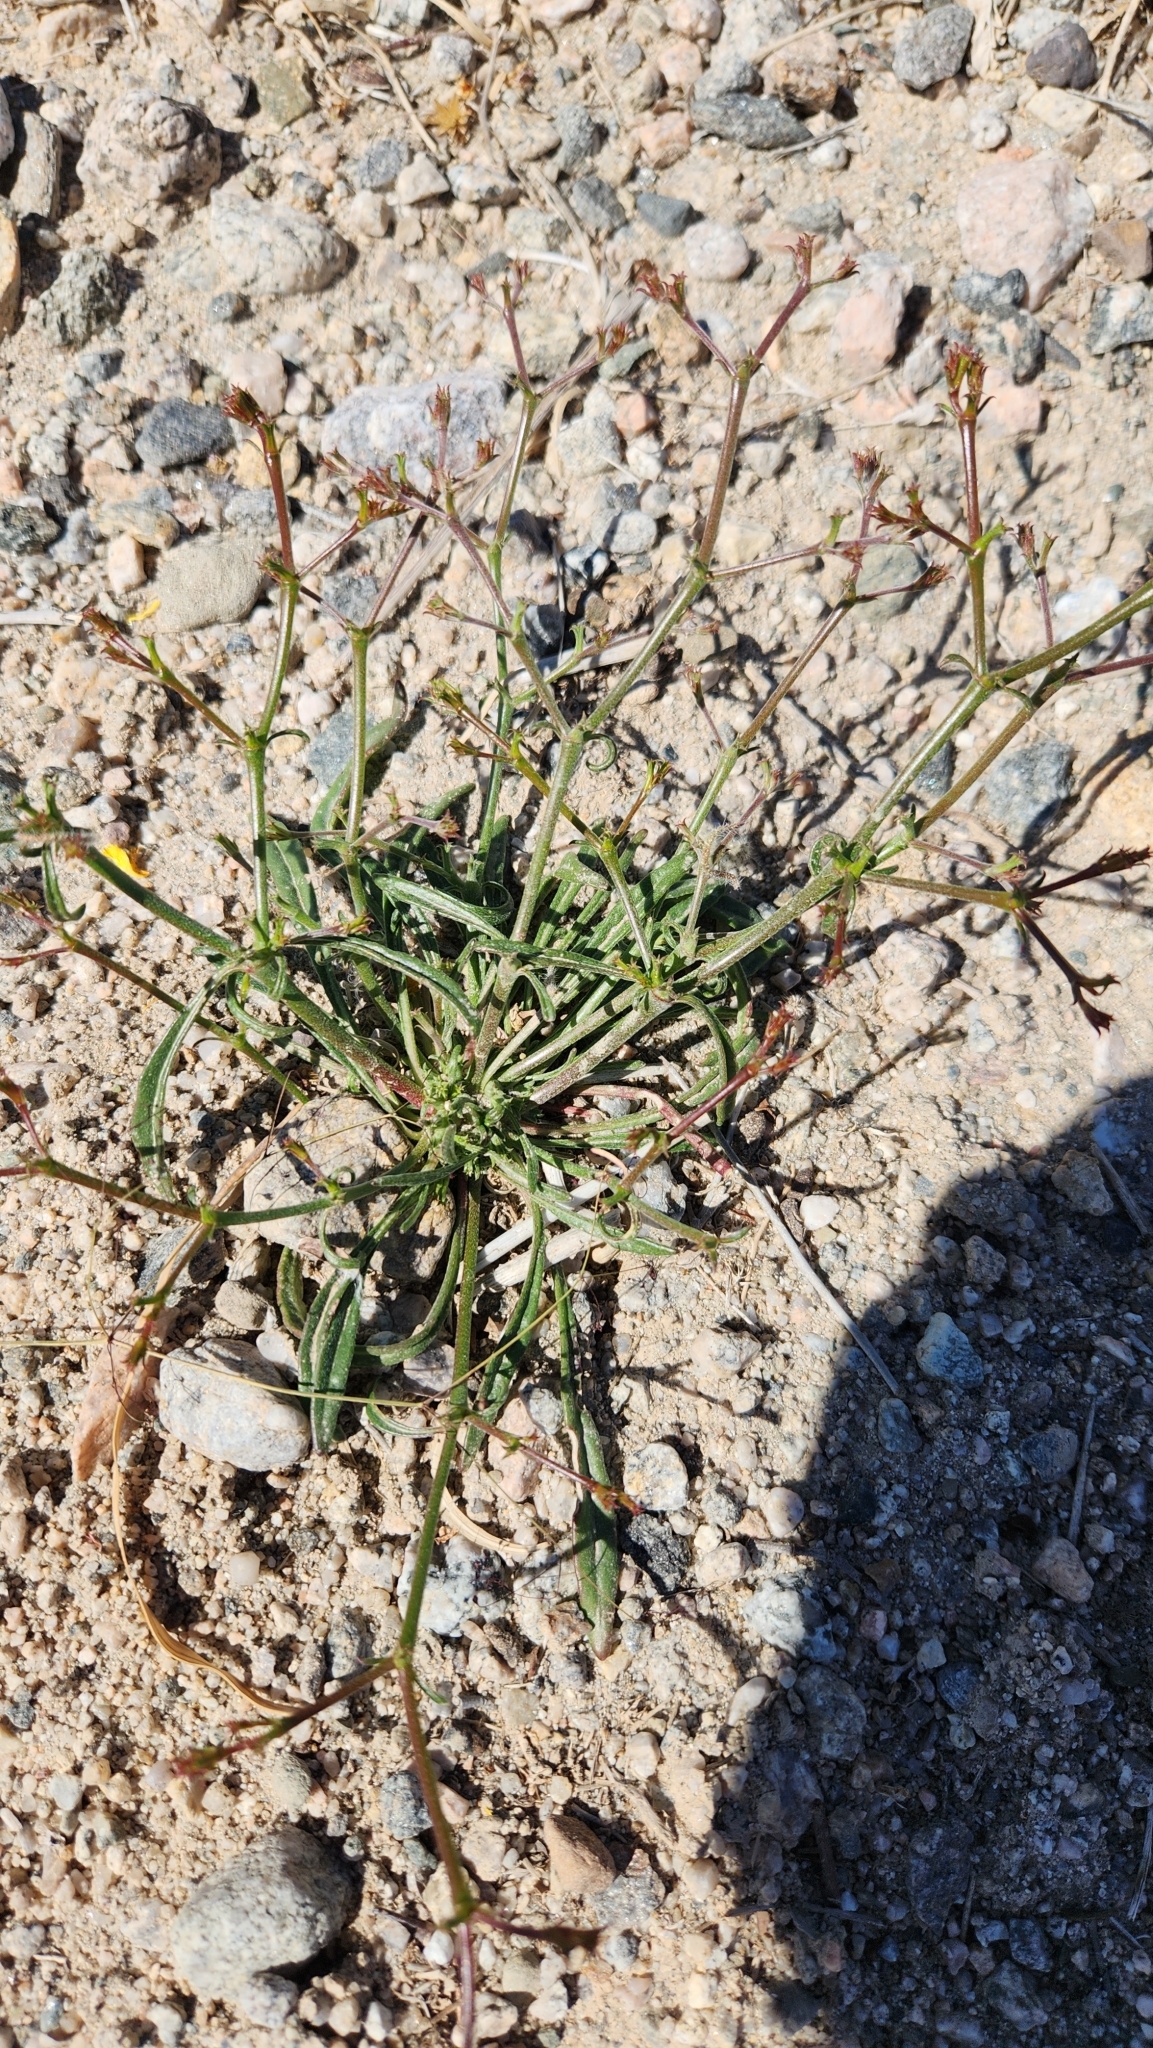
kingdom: Plantae
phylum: Tracheophyta
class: Magnoliopsida
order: Caryophyllales
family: Polygonaceae
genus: Chorizanthe
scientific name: Chorizanthe brevicornu
